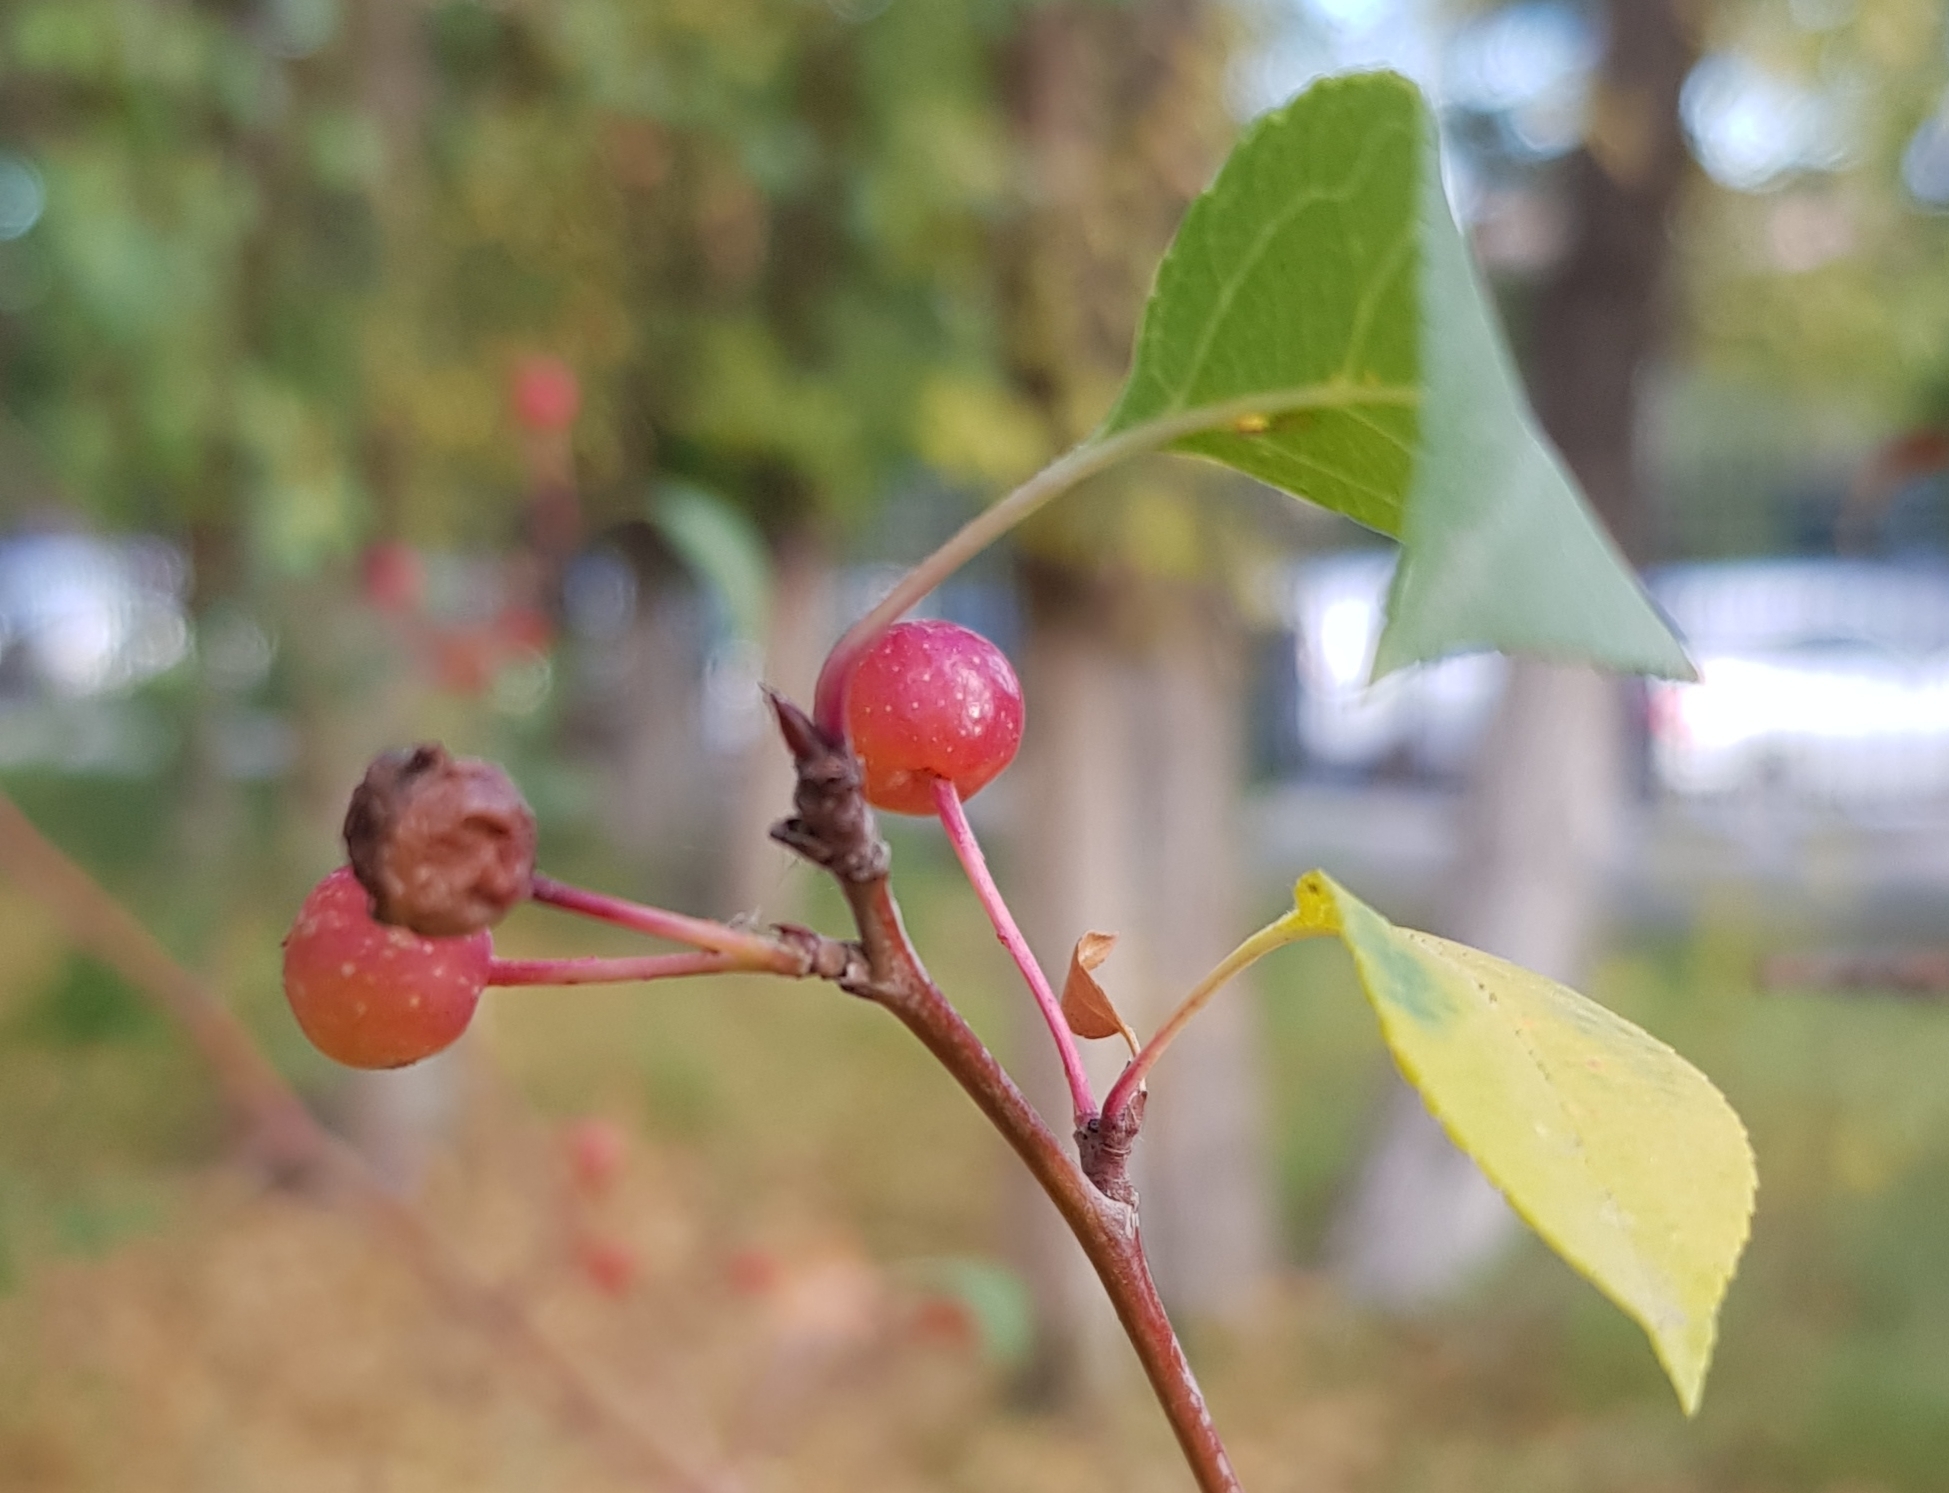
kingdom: Plantae
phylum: Tracheophyta
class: Magnoliopsida
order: Rosales
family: Rosaceae
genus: Malus
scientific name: Malus baccata
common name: Siberian crab
